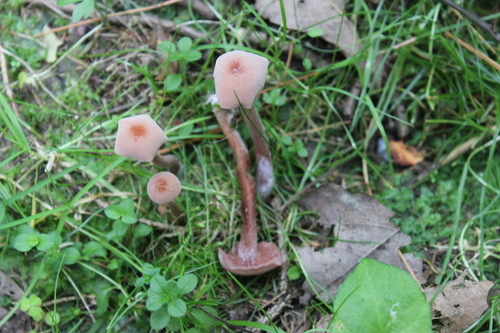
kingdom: Fungi
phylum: Basidiomycota
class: Agaricomycetes
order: Agaricales
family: Hydnangiaceae
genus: Laccaria
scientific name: Laccaria bicolor
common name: Bicoloured deceiver
